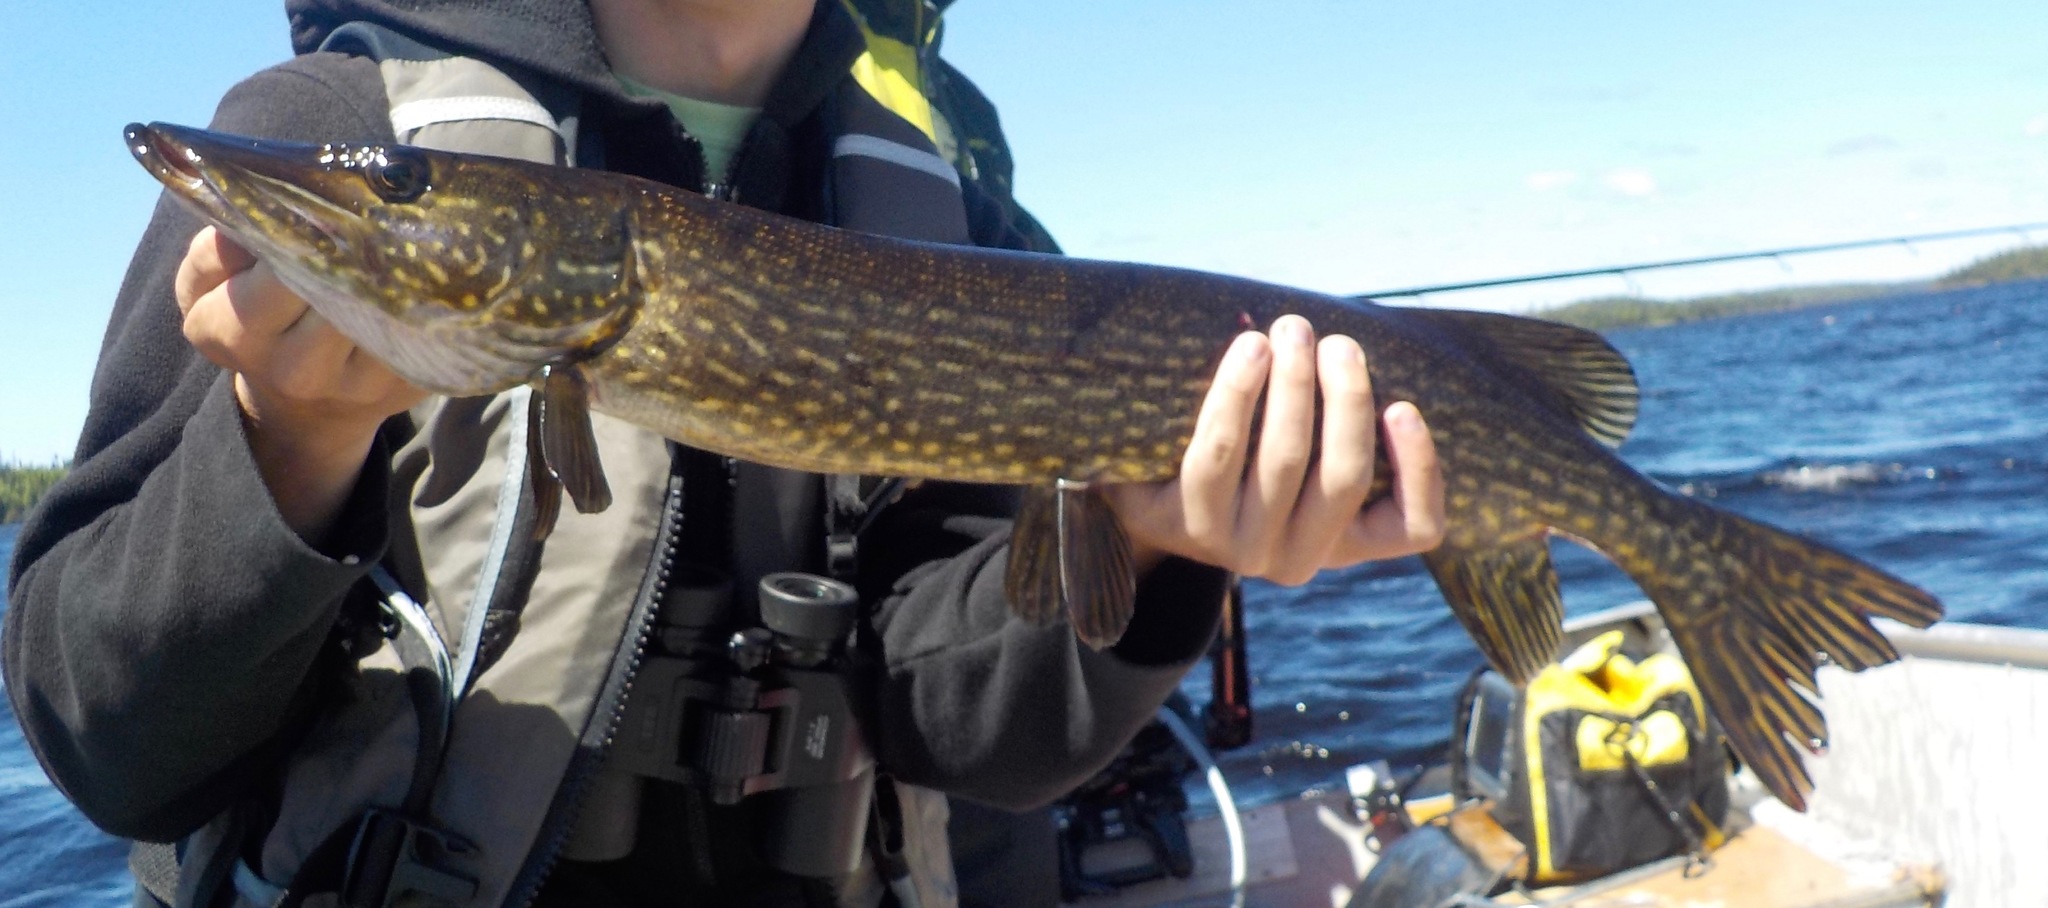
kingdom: Animalia
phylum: Chordata
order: Esociformes
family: Esocidae
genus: Esox
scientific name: Esox lucius
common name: Northern pike
